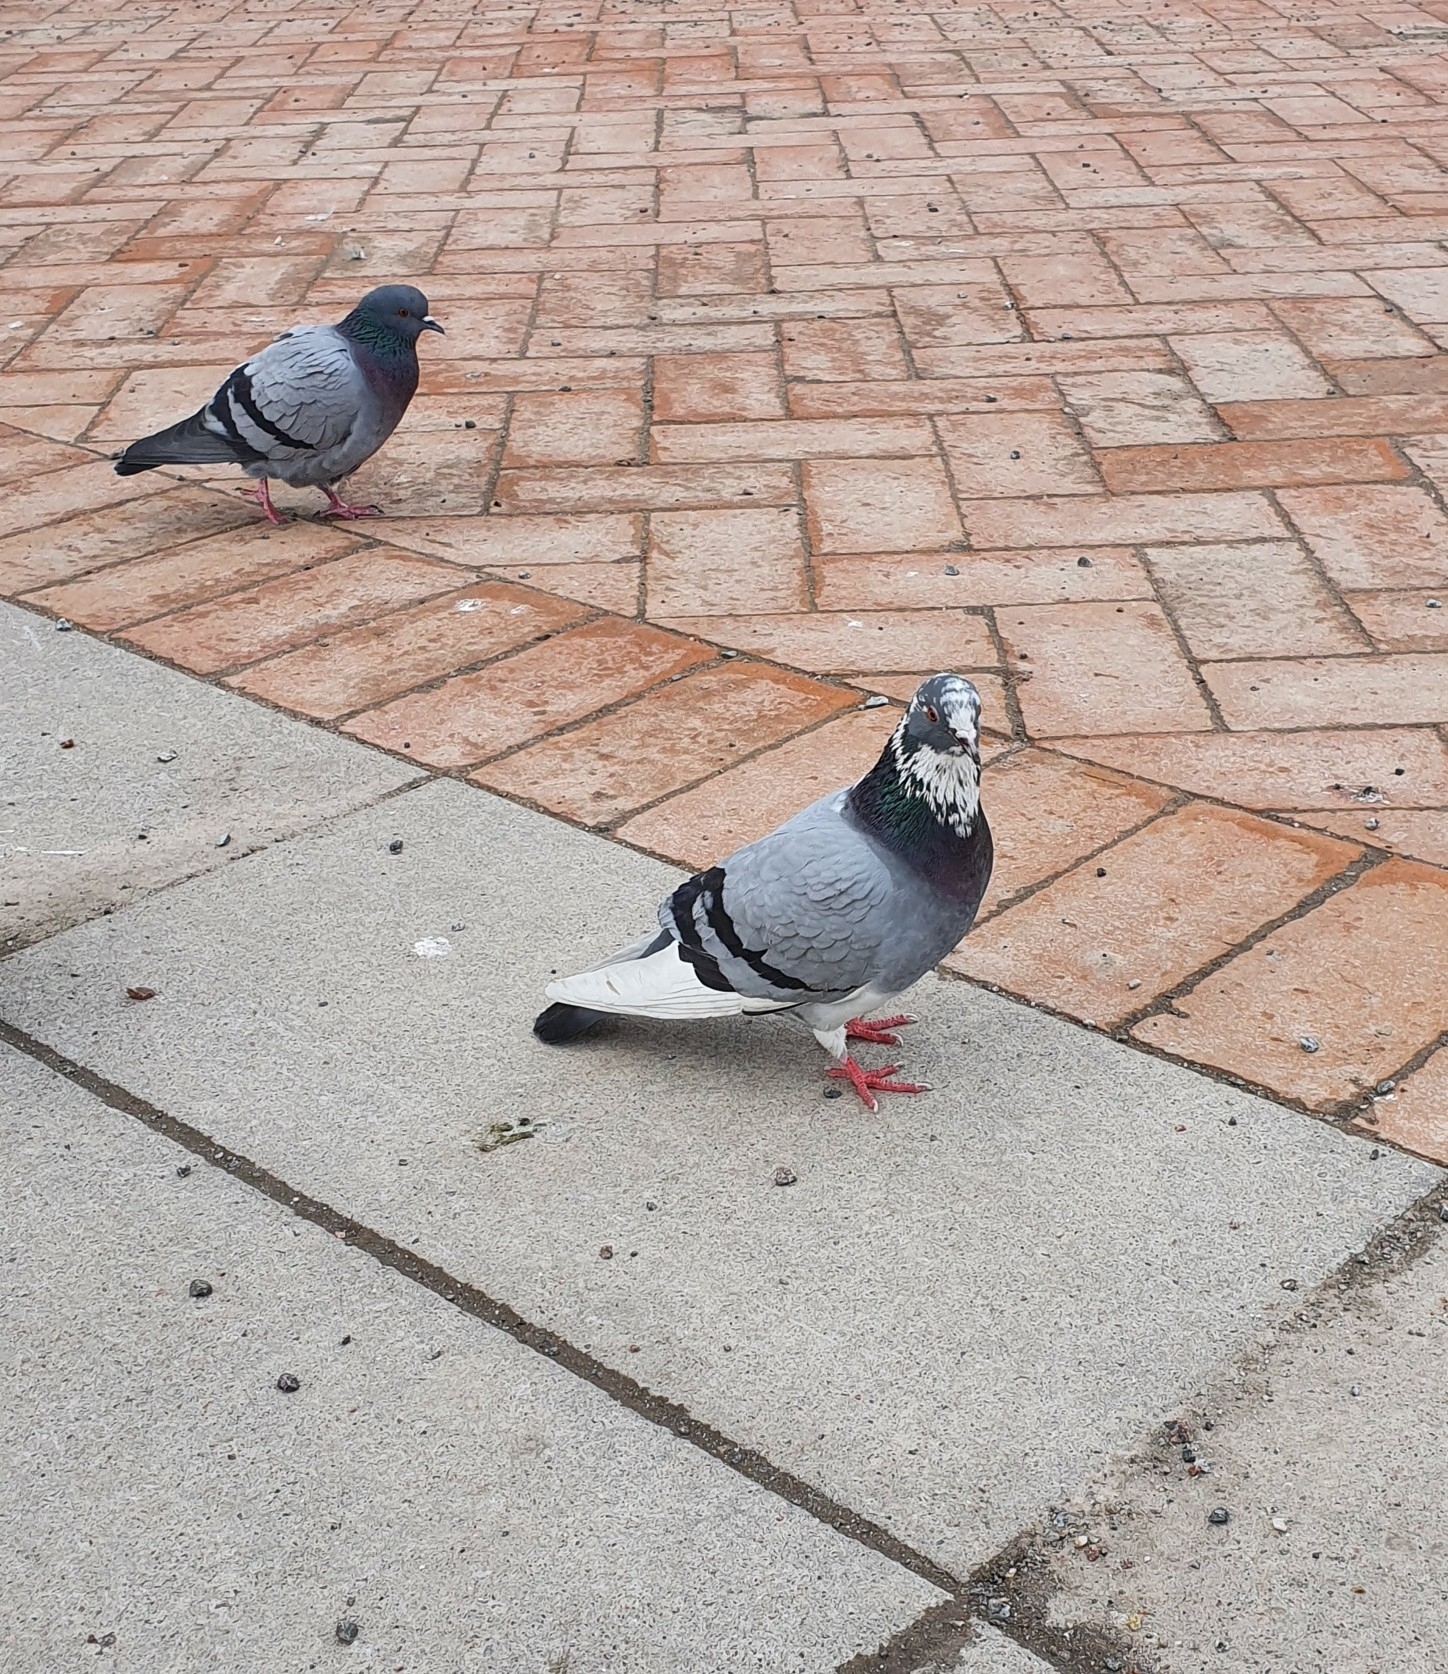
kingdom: Animalia
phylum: Chordata
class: Aves
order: Columbiformes
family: Columbidae
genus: Columba
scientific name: Columba livia
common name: Rock pigeon
